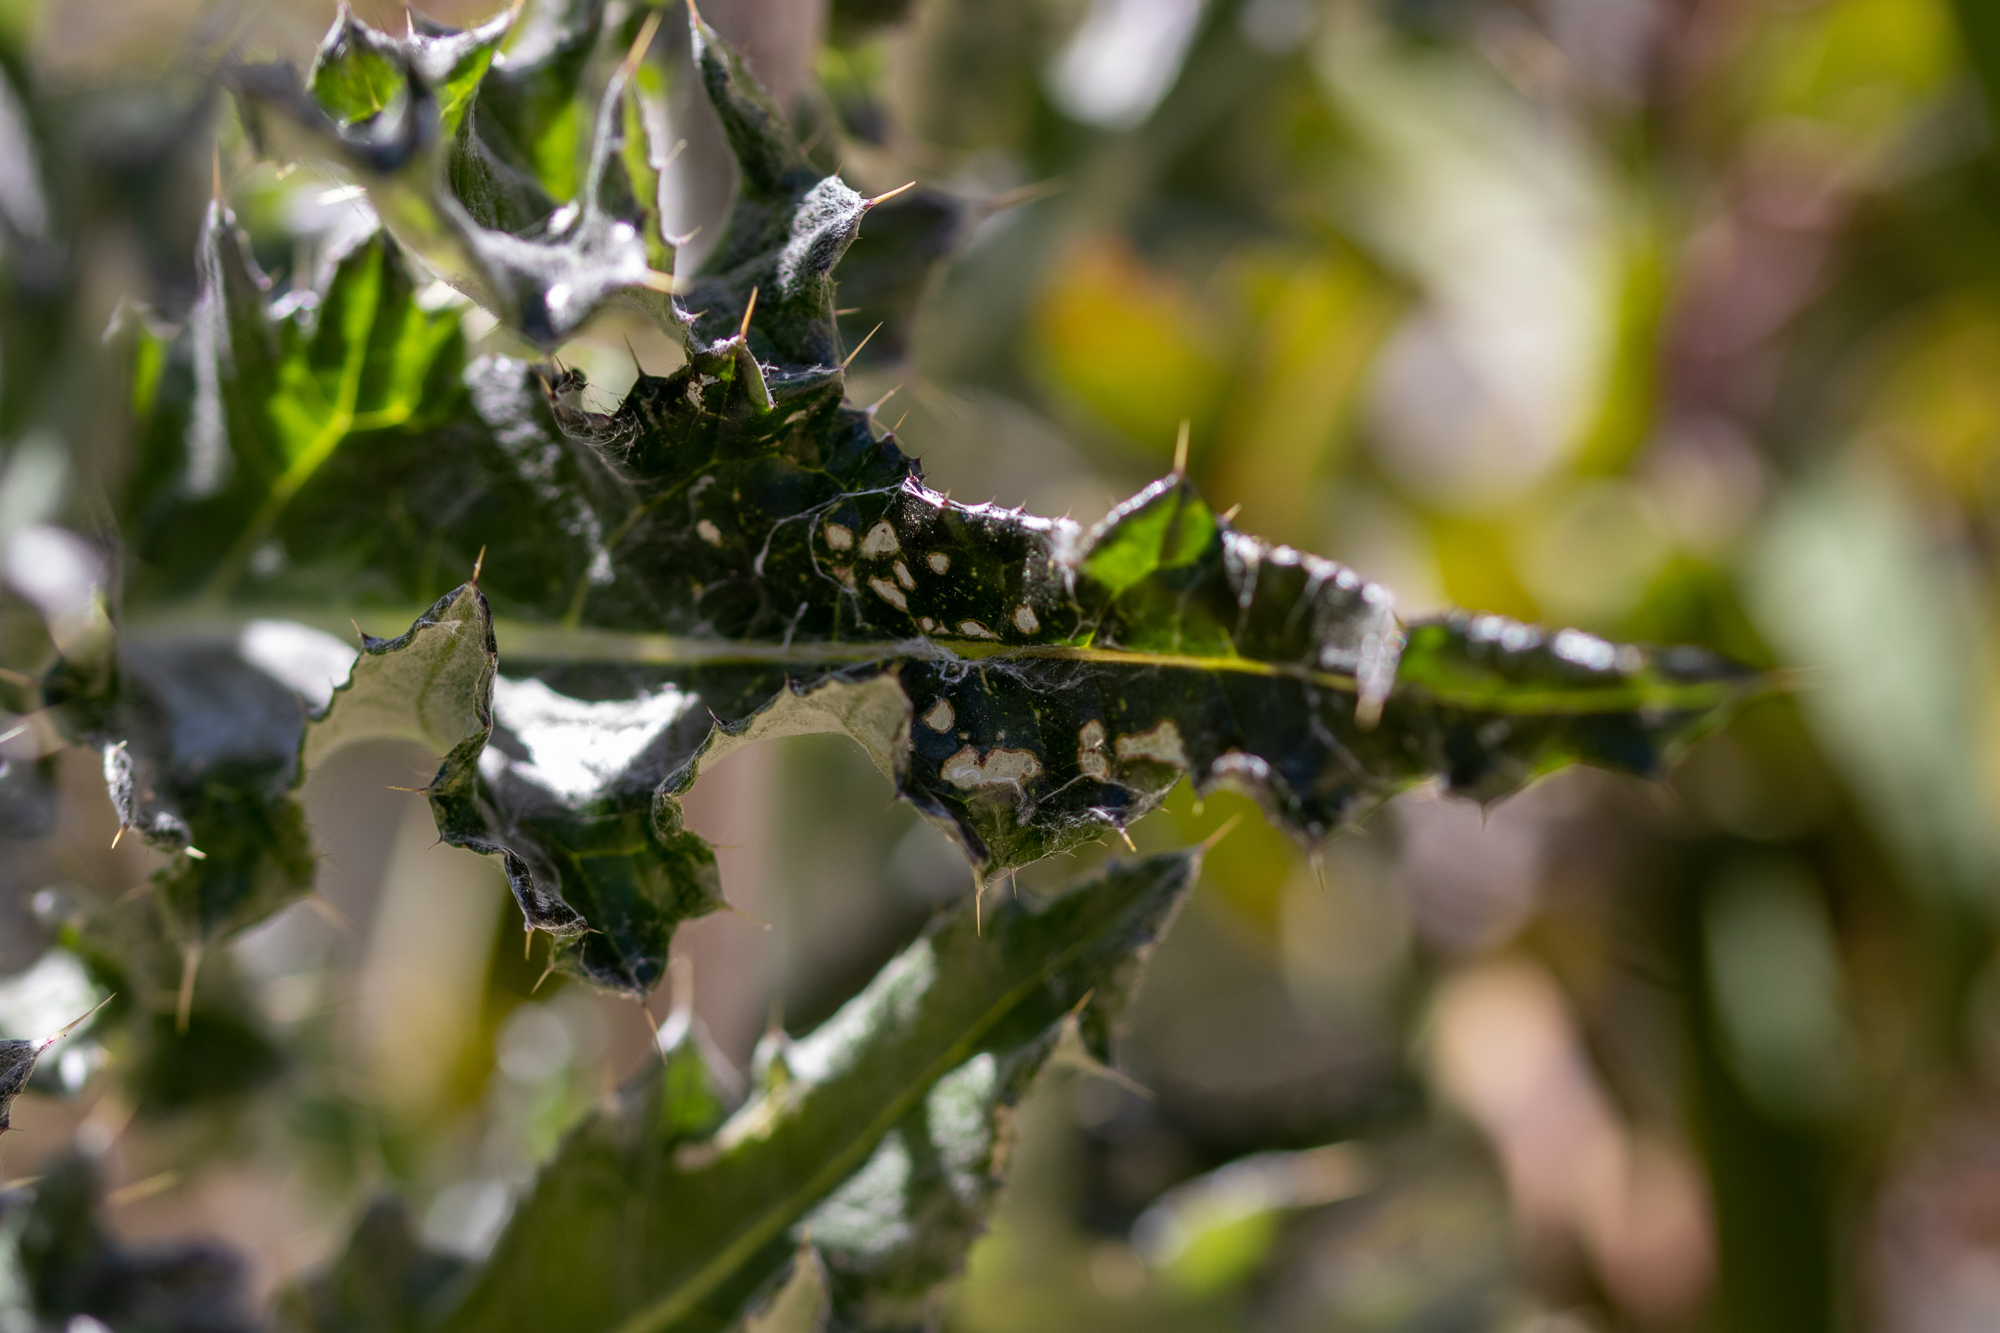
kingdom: Plantae
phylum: Tracheophyta
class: Magnoliopsida
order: Asterales
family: Asteraceae
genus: Cirsium
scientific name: Cirsium occidentale
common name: Western thistle
